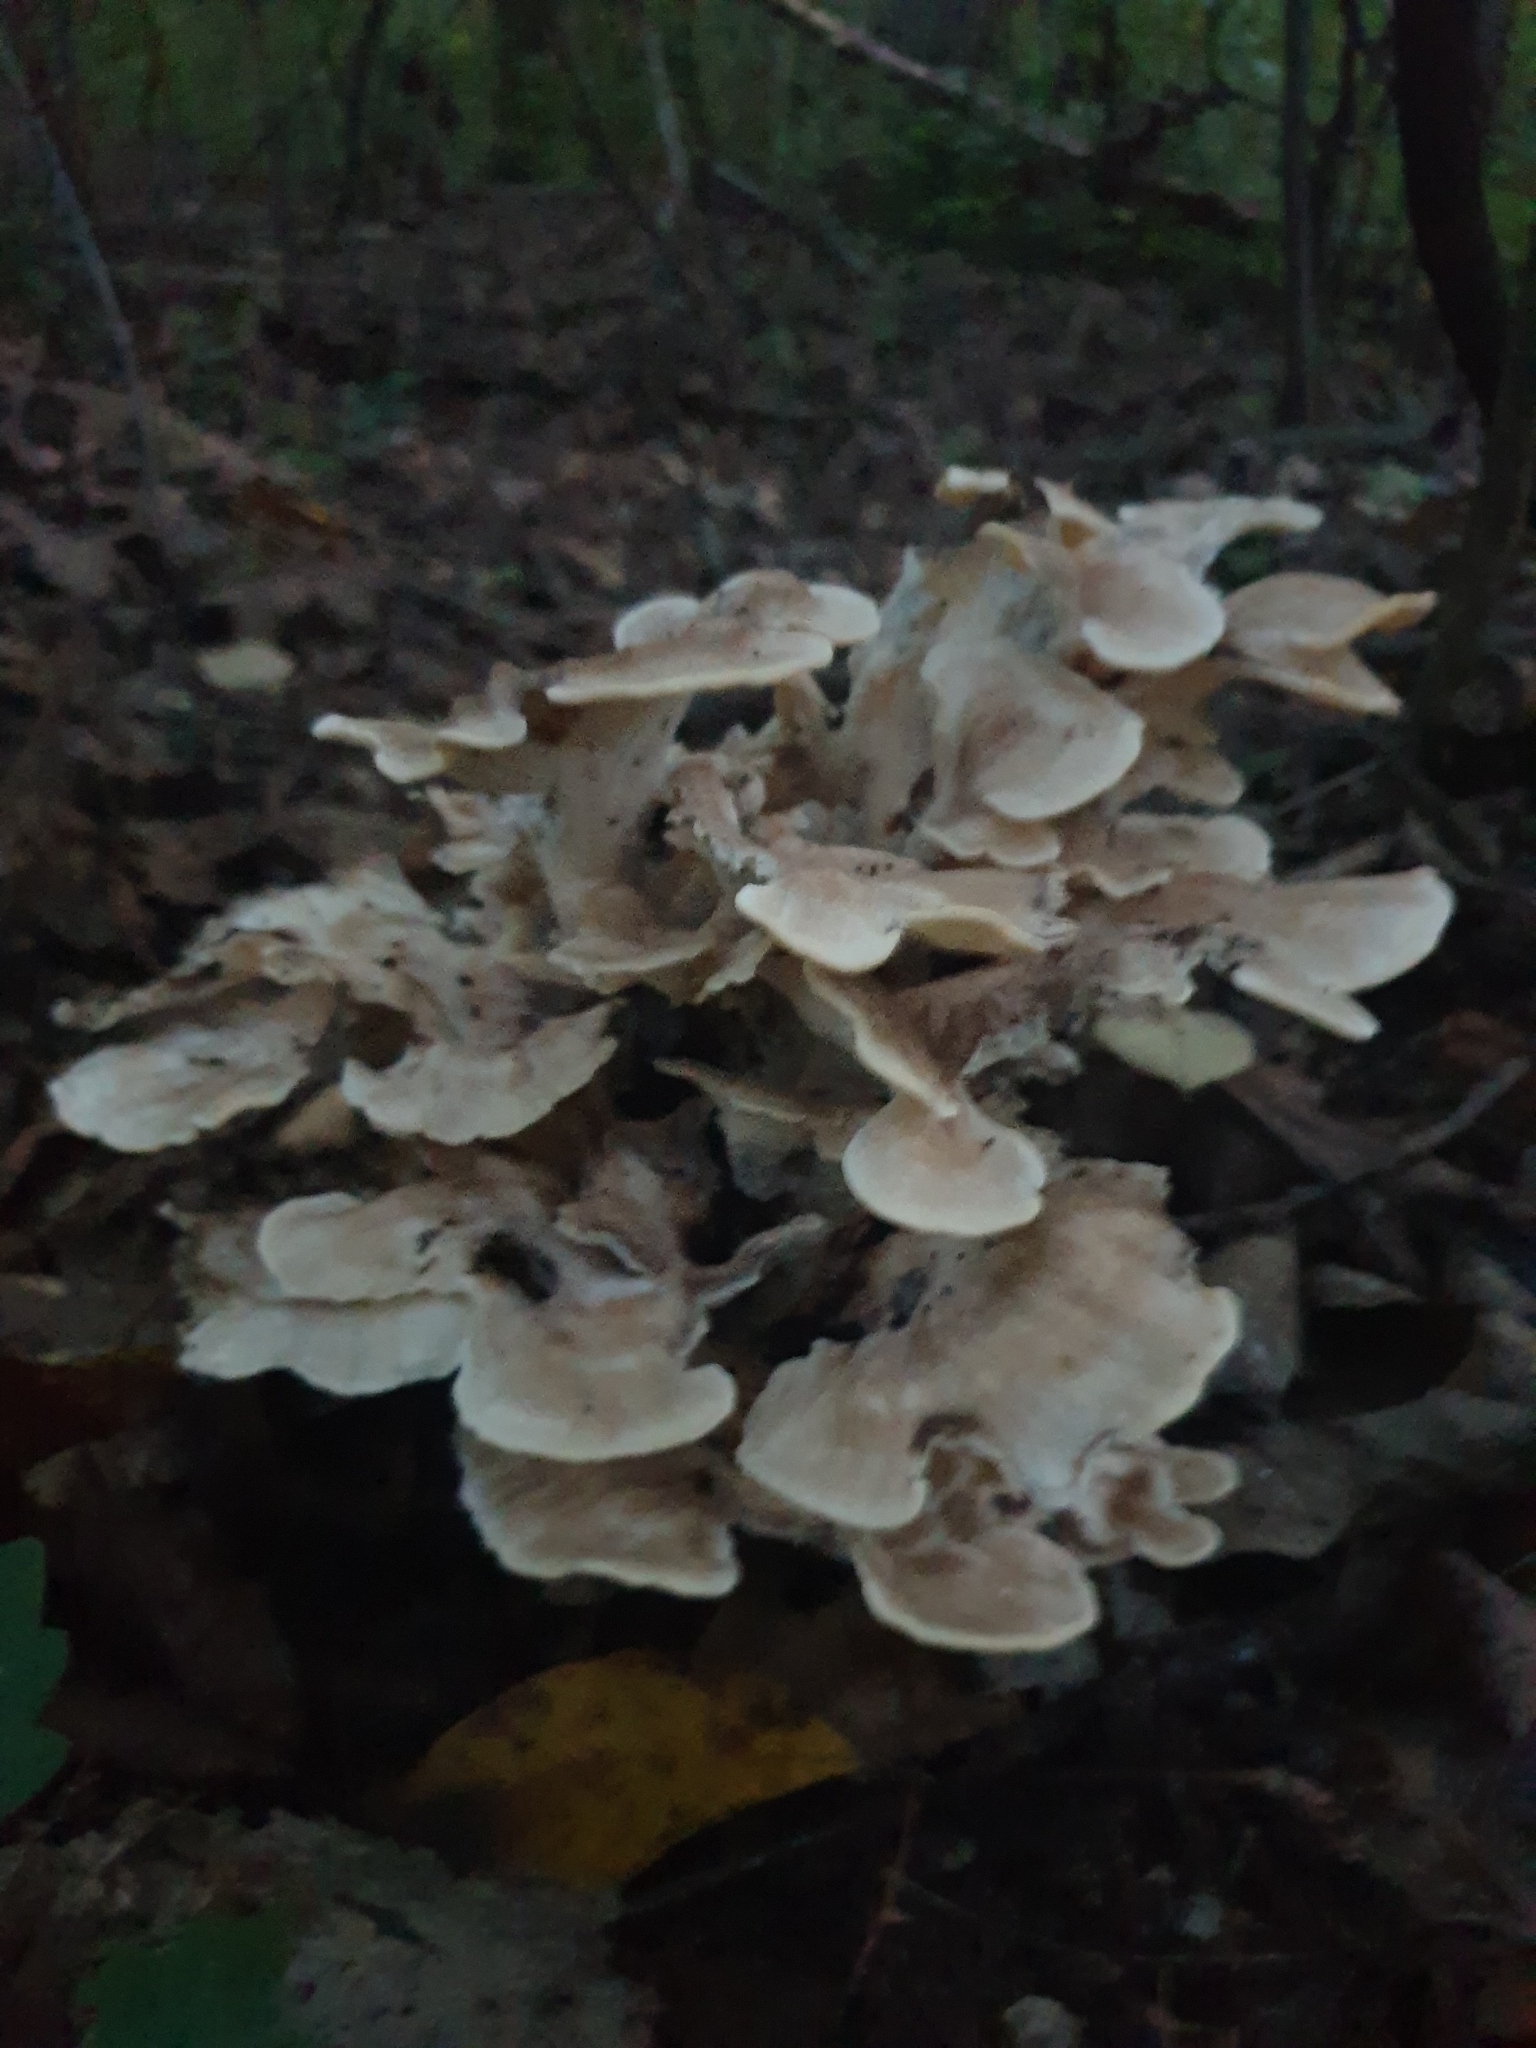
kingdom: Fungi
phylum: Basidiomycota
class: Agaricomycetes
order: Polyporales
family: Meripilaceae
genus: Meripilus
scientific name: Meripilus sumstinei
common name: Black-staining polypore
